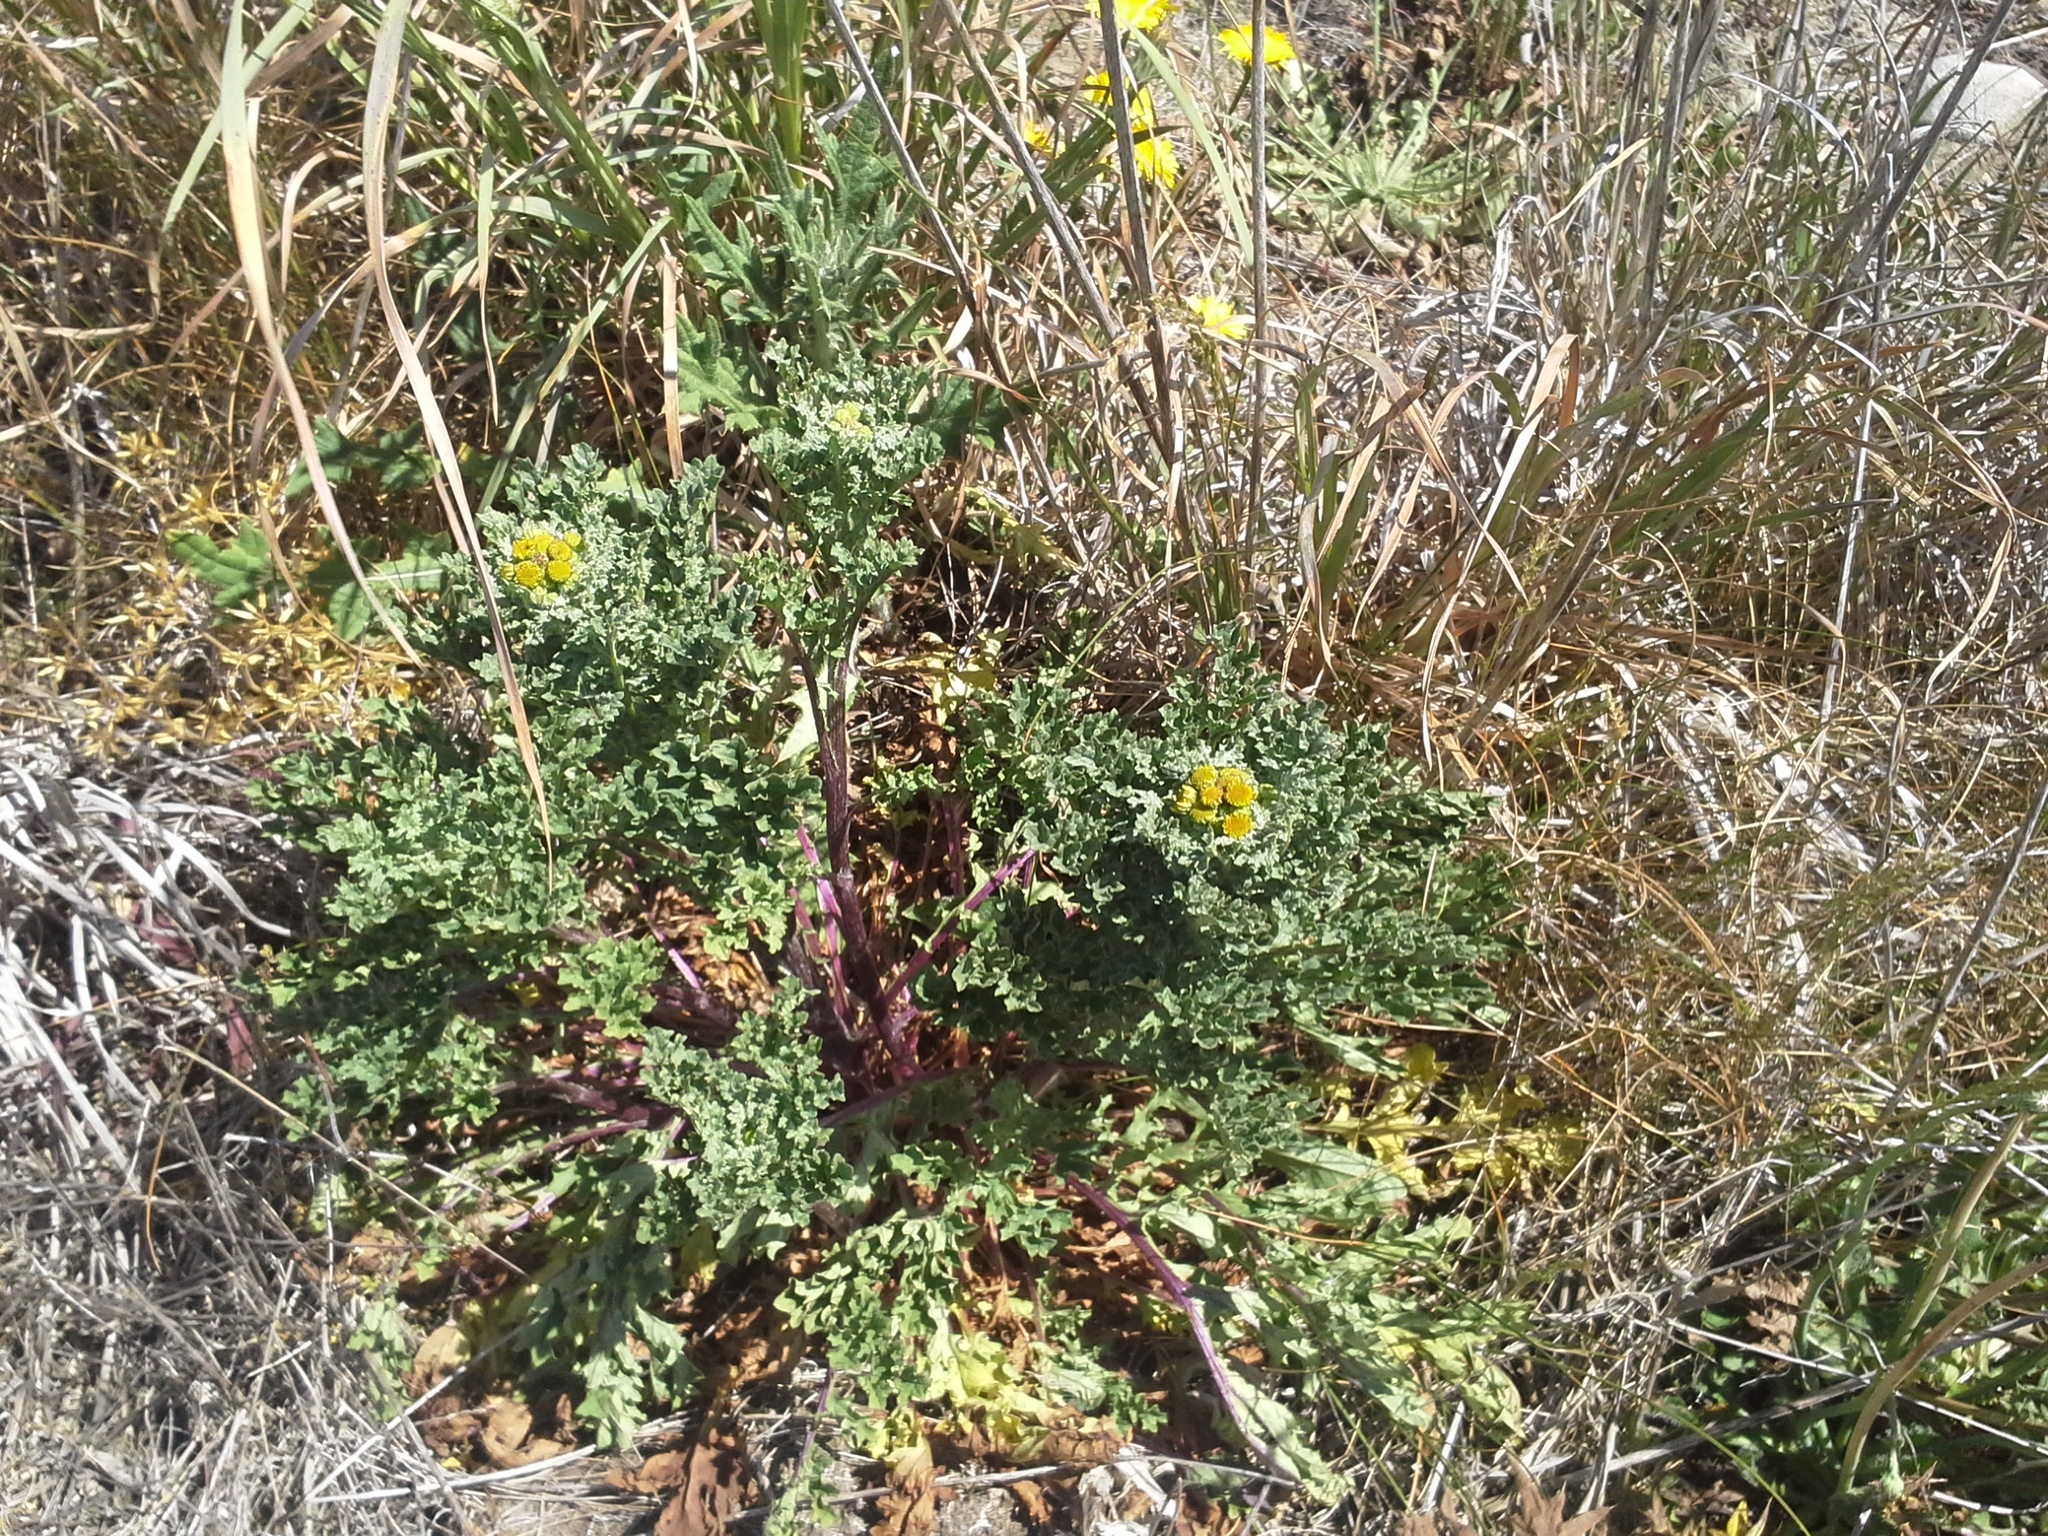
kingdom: Plantae
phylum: Tracheophyta
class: Magnoliopsida
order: Asterales
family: Asteraceae
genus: Jacobaea
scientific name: Jacobaea vulgaris
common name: Stinking willie
